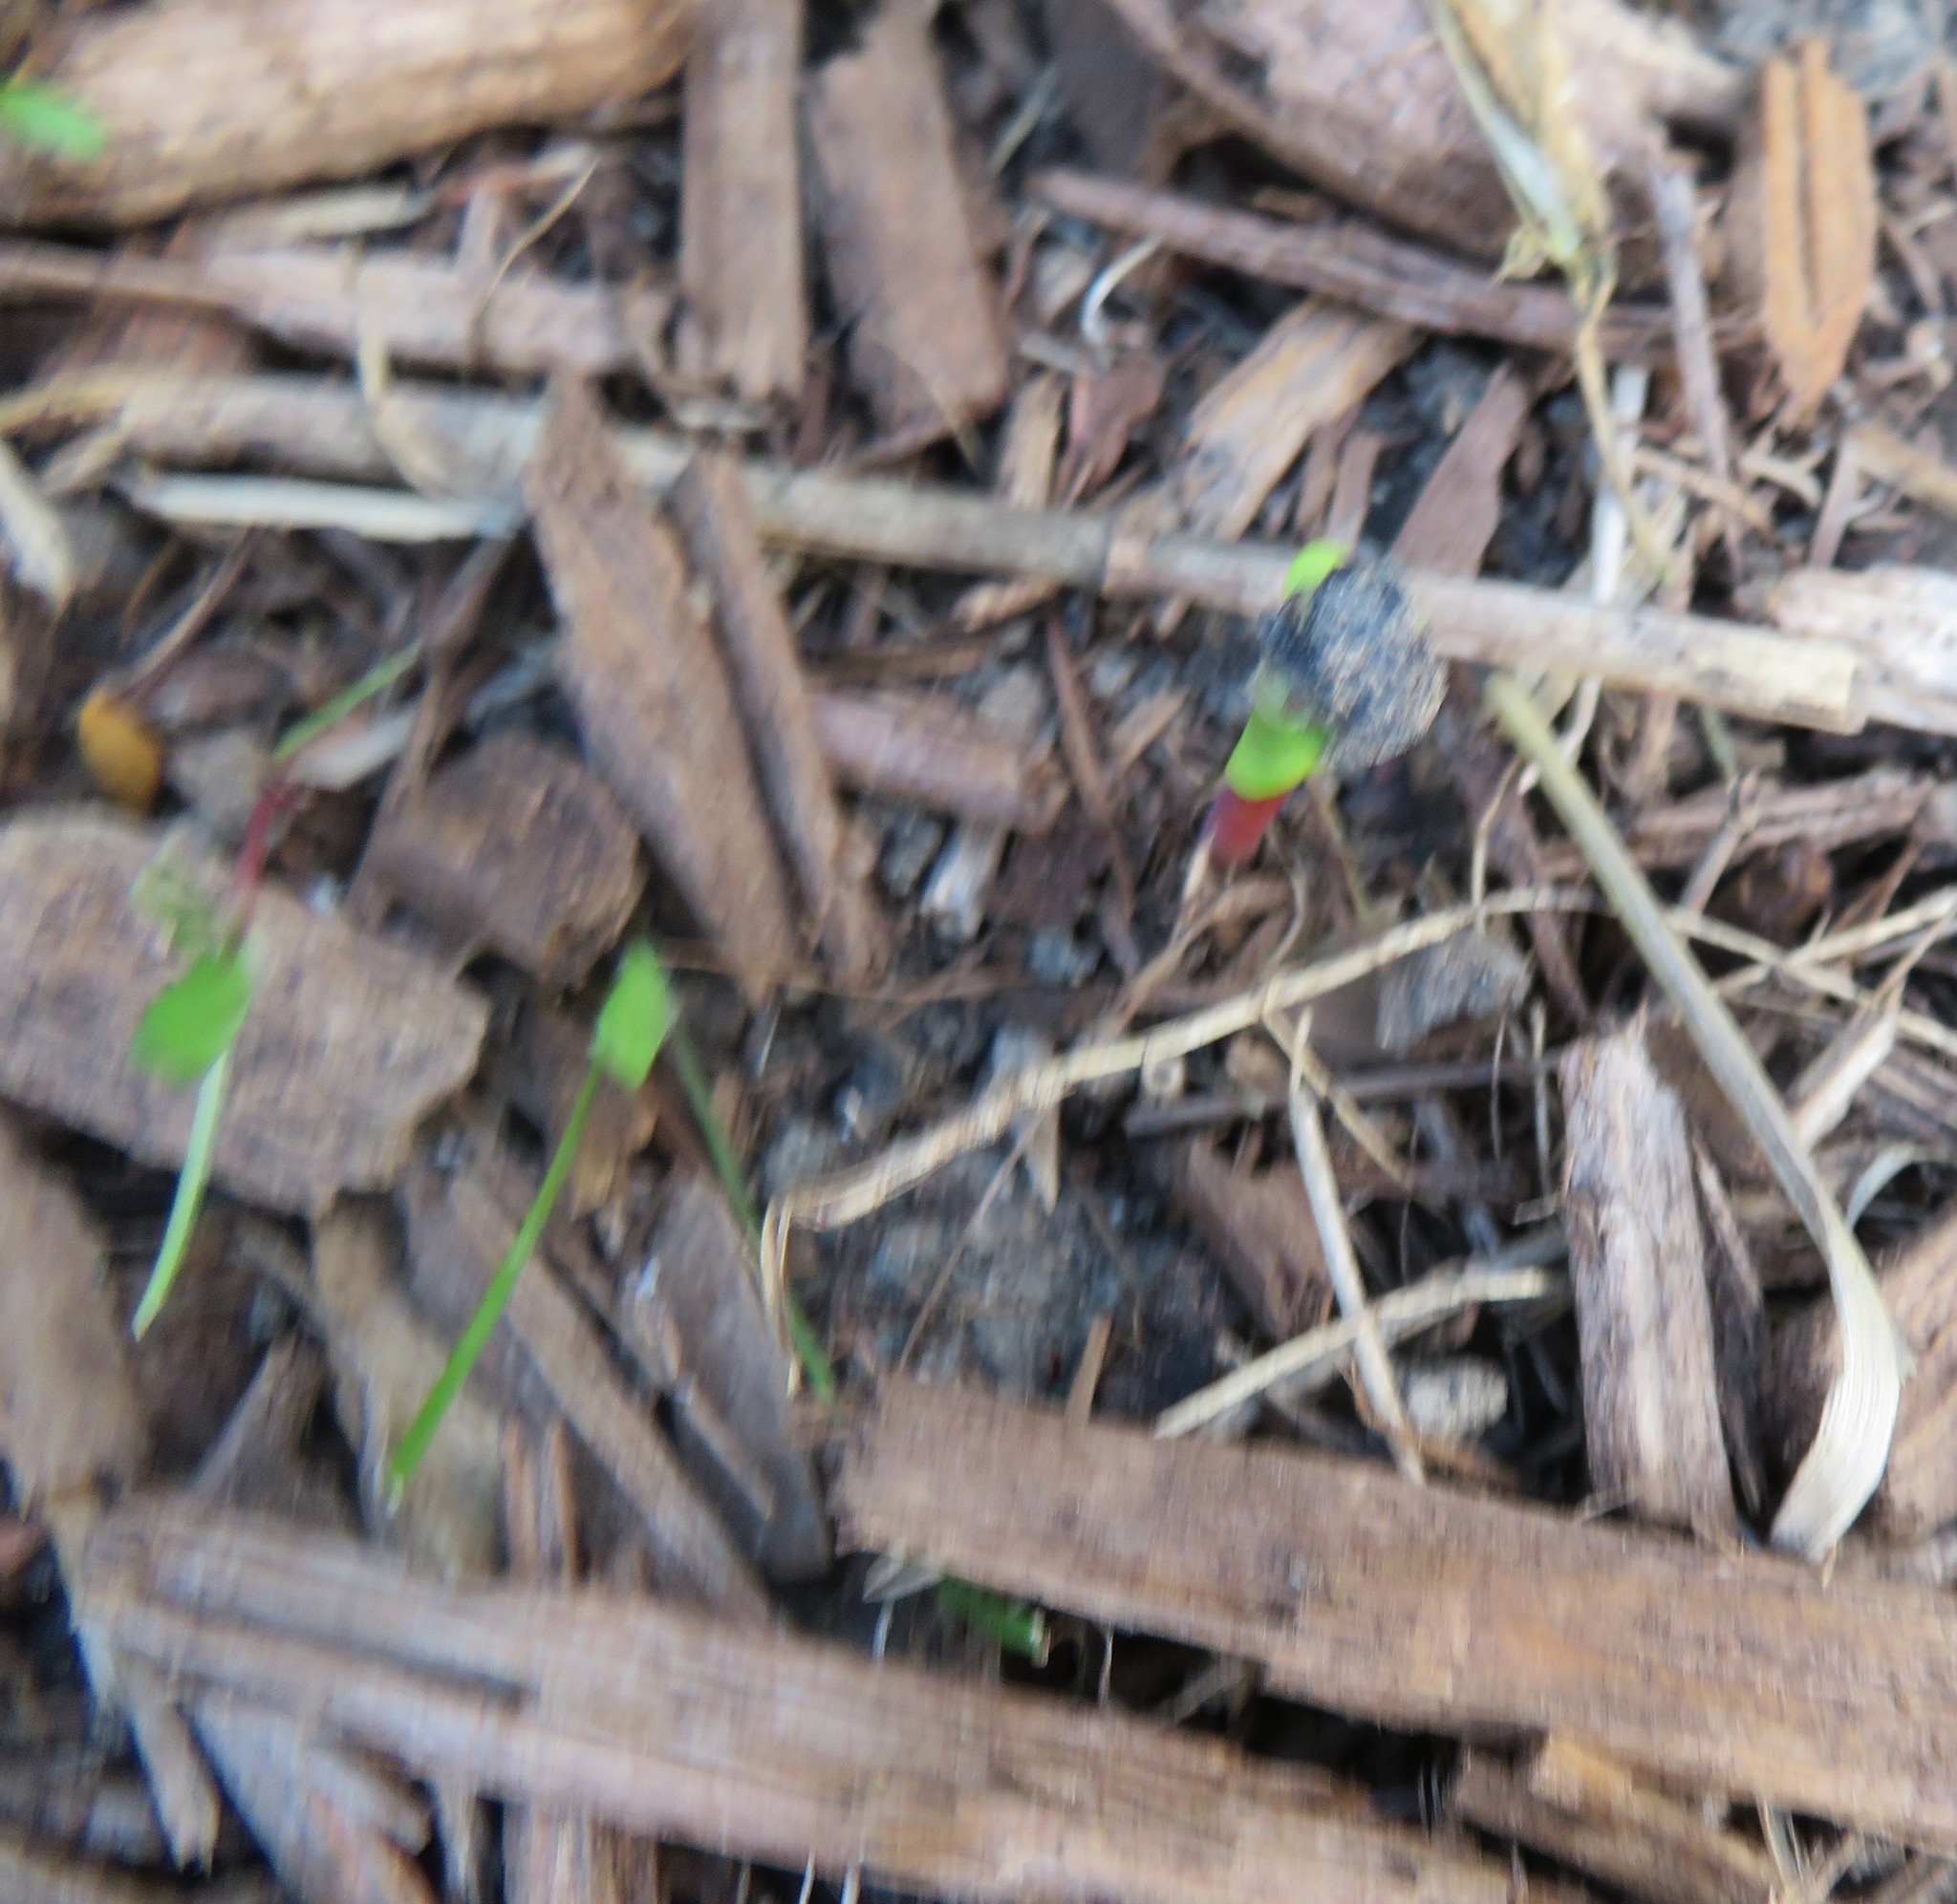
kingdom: Plantae
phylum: Tracheophyta
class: Magnoliopsida
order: Geraniales
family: Melianthaceae
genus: Melianthus
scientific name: Melianthus major
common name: Honey-flower
